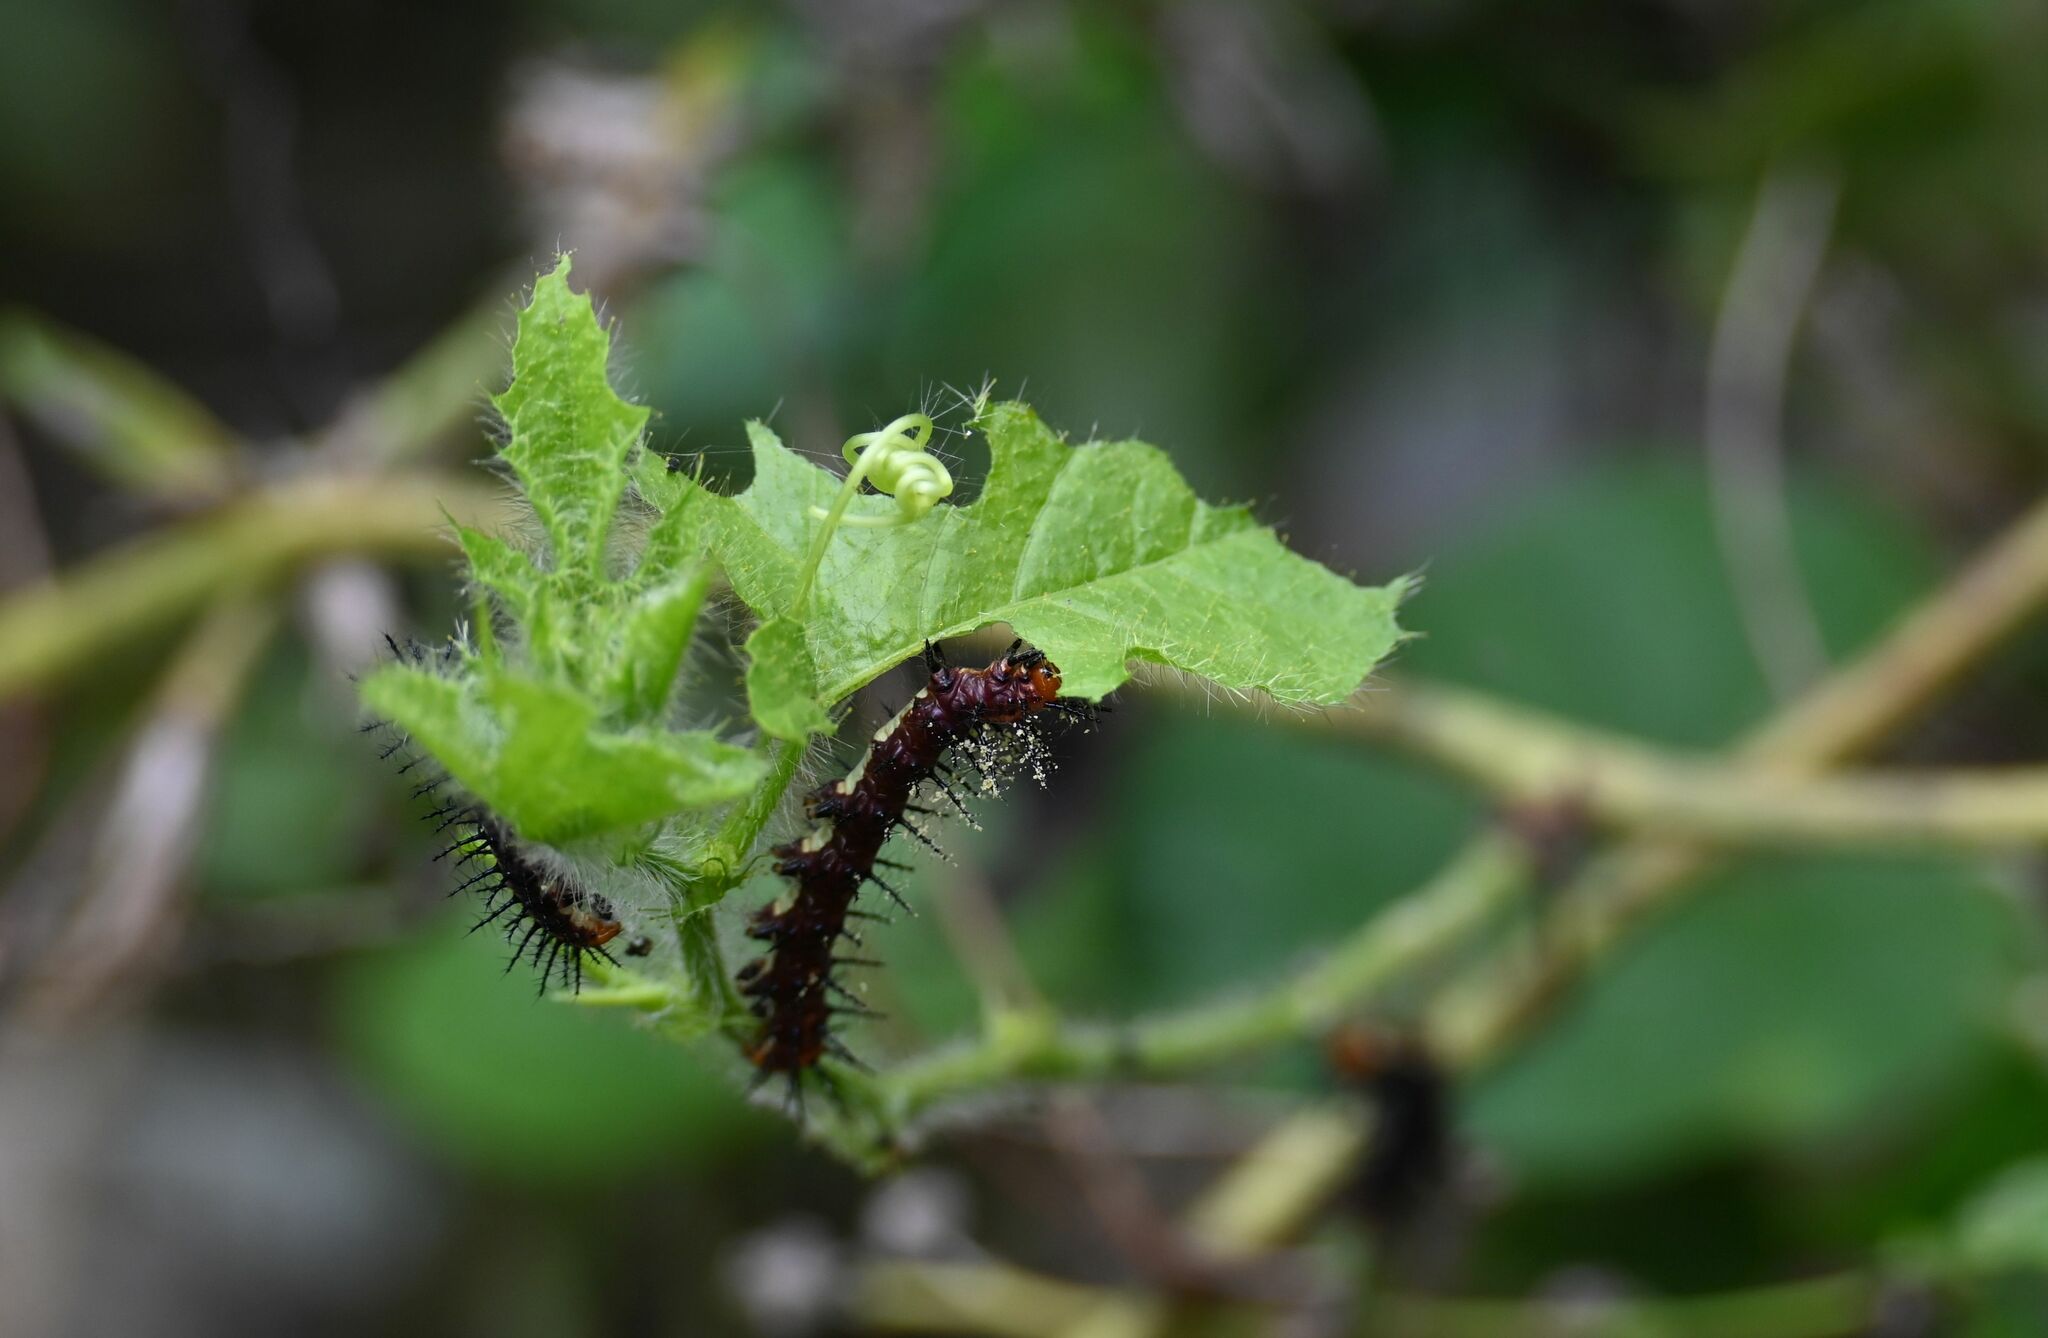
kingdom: Animalia
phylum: Arthropoda
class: Insecta
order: Lepidoptera
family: Nymphalidae
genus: Acraea
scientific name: Acraea terpsicore
